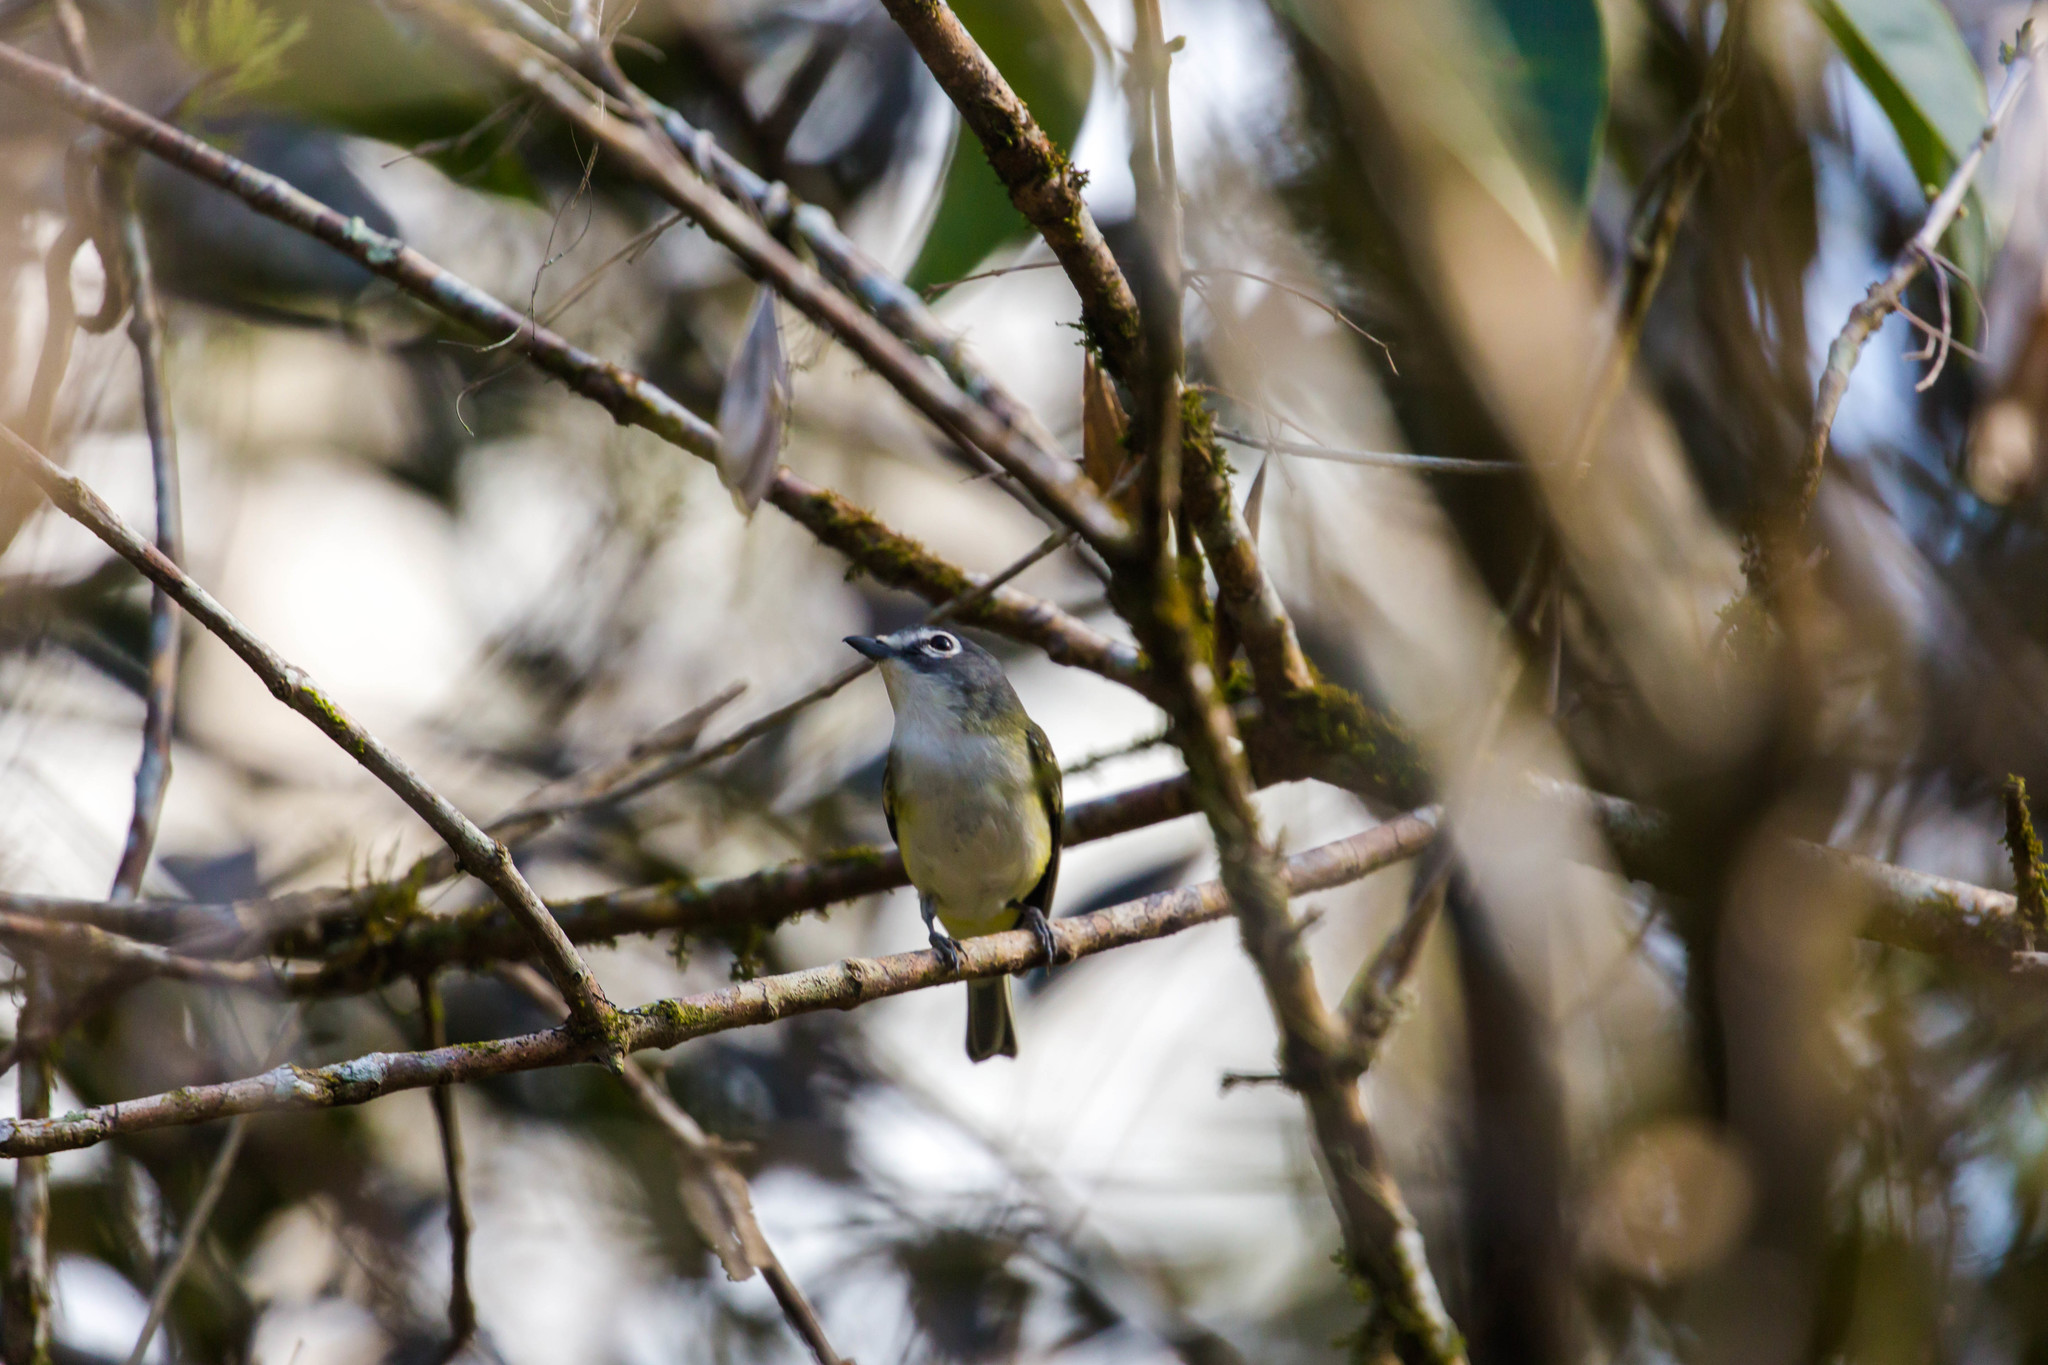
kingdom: Animalia
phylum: Chordata
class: Aves
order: Passeriformes
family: Vireonidae
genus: Vireo
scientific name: Vireo solitarius
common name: Blue-headed vireo
